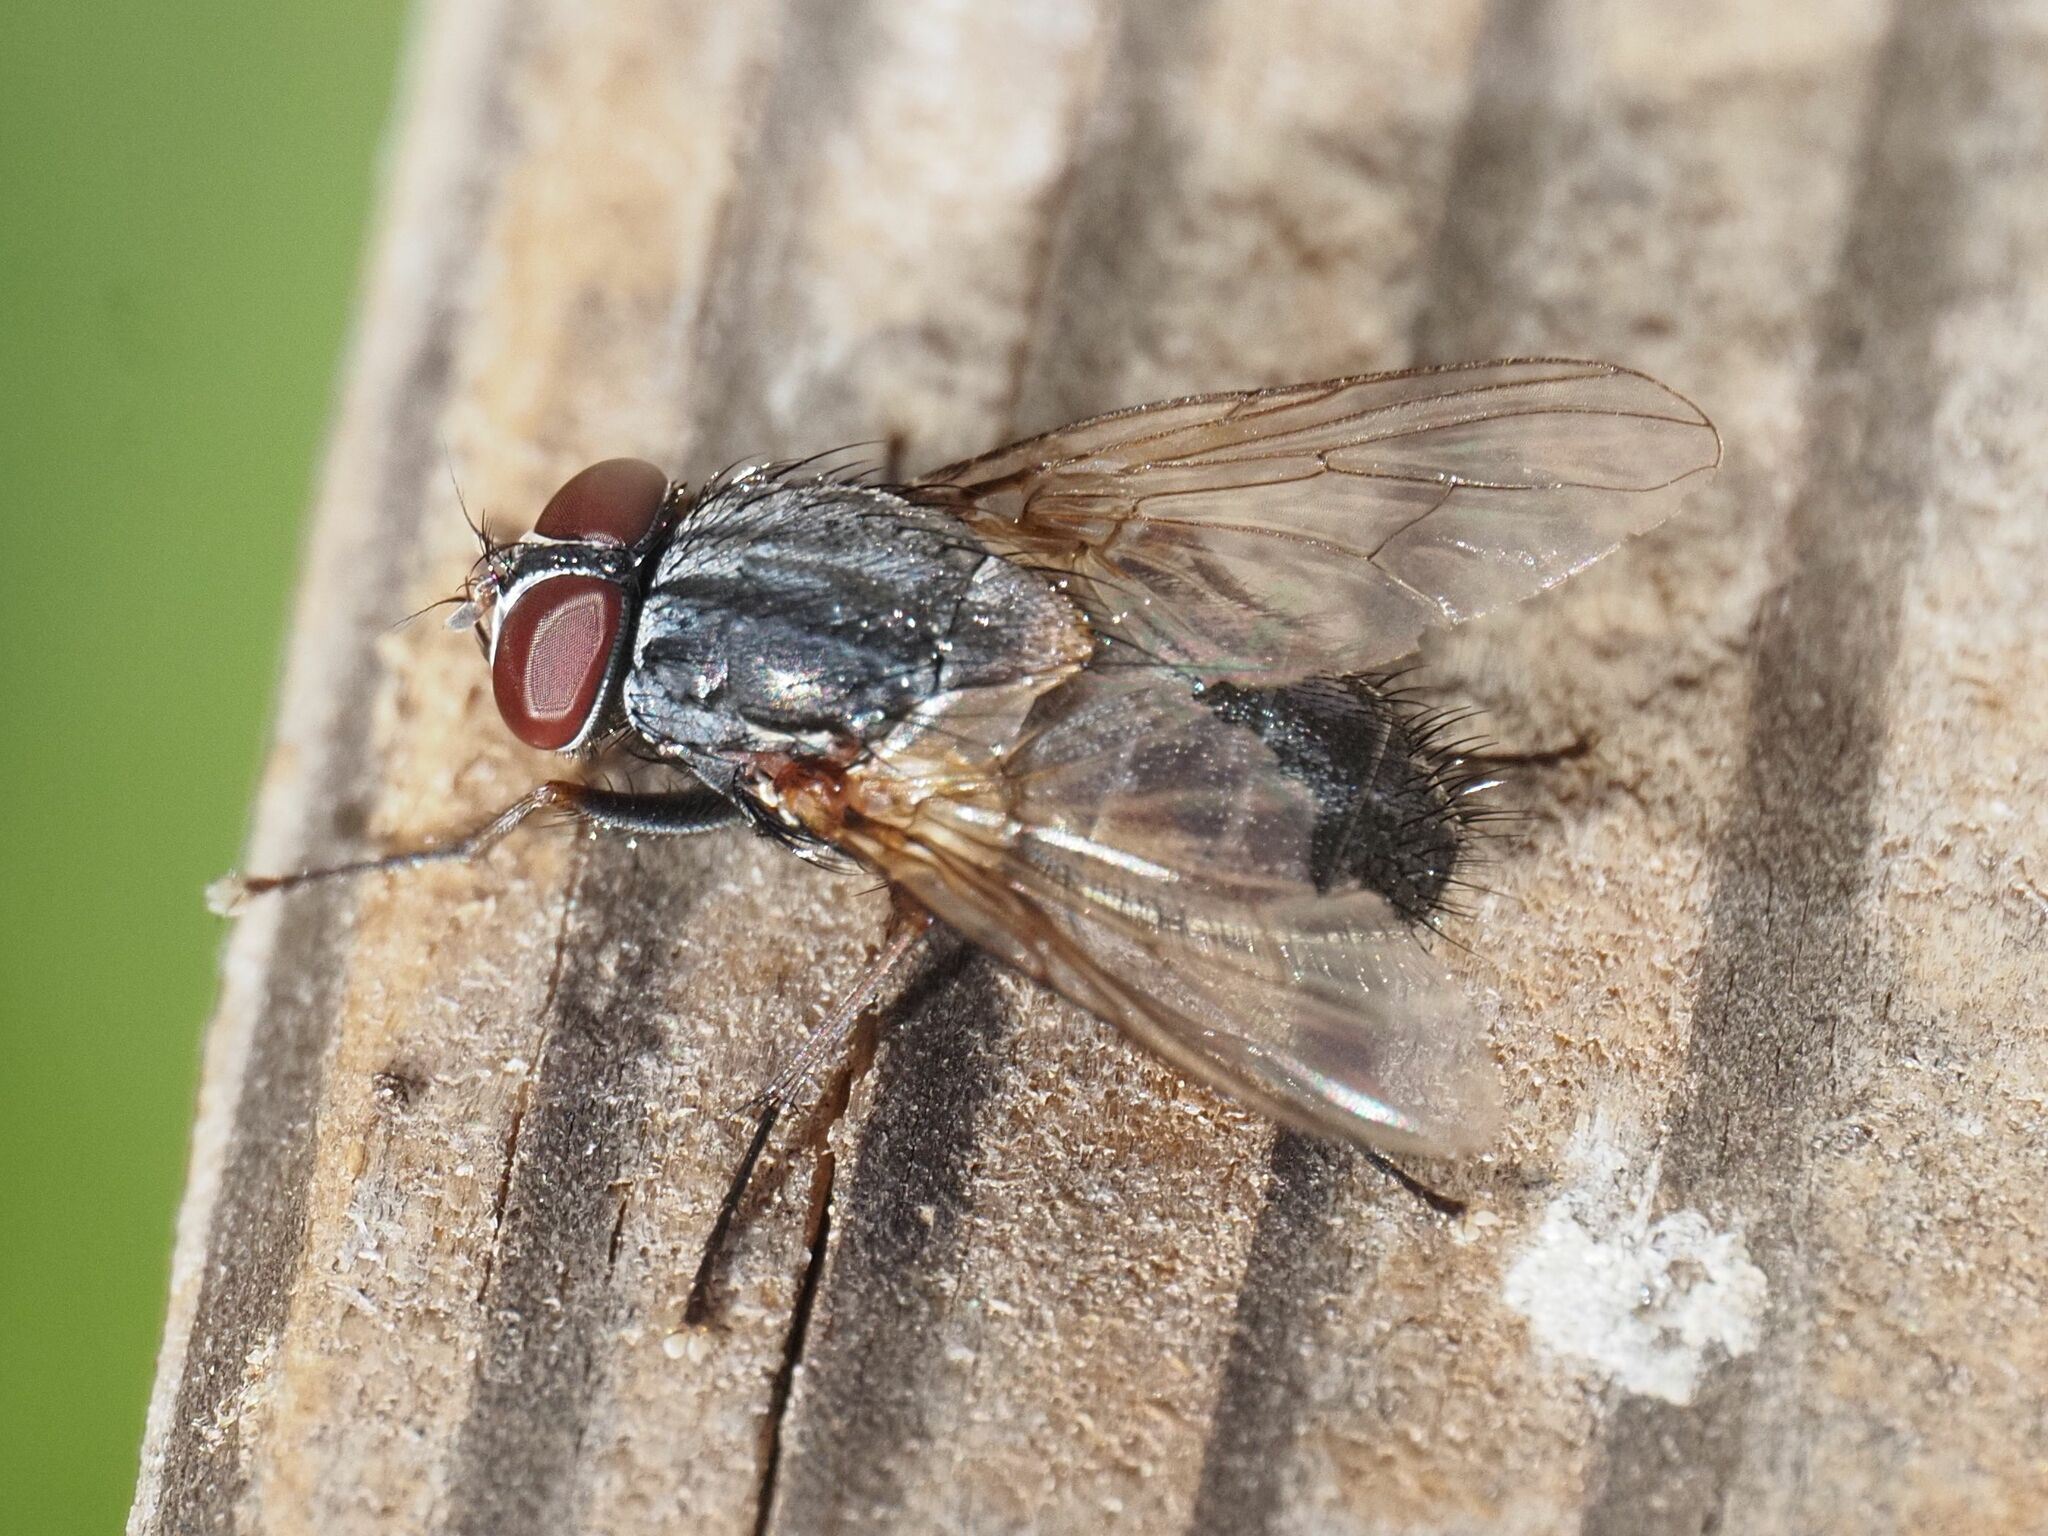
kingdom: Animalia
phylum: Arthropoda
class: Insecta
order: Diptera
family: Muscidae
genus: Muscina
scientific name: Muscina stabulans
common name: False stable fly
